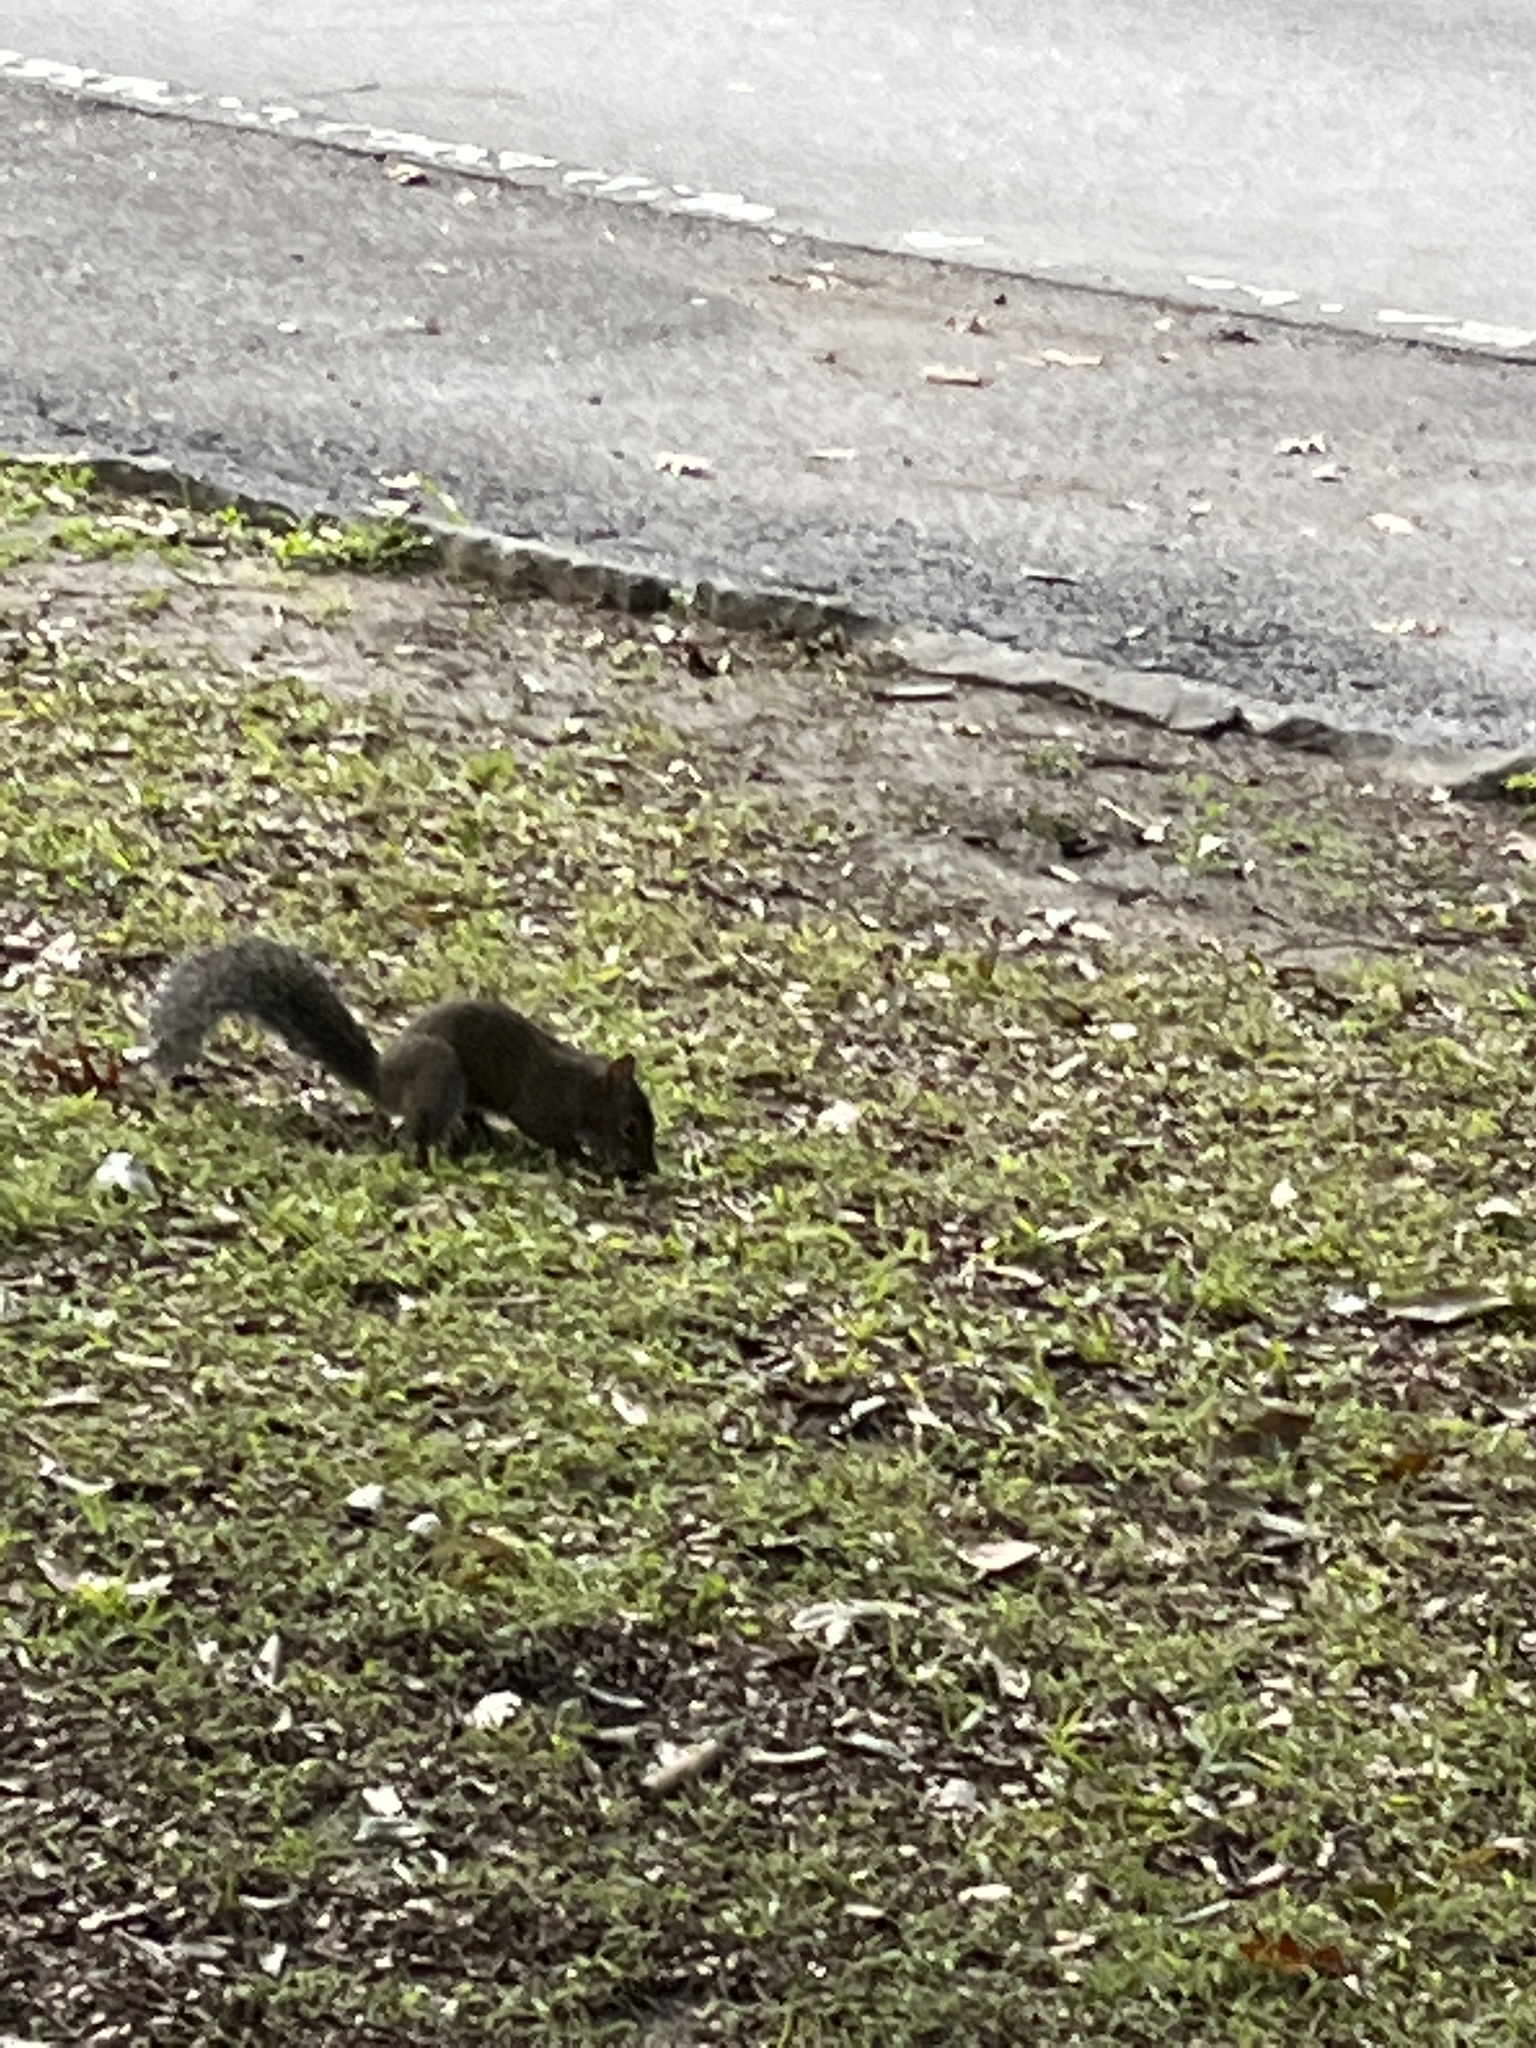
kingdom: Animalia
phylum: Chordata
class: Mammalia
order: Rodentia
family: Sciuridae
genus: Sciurus
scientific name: Sciurus carolinensis
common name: Eastern gray squirrel
